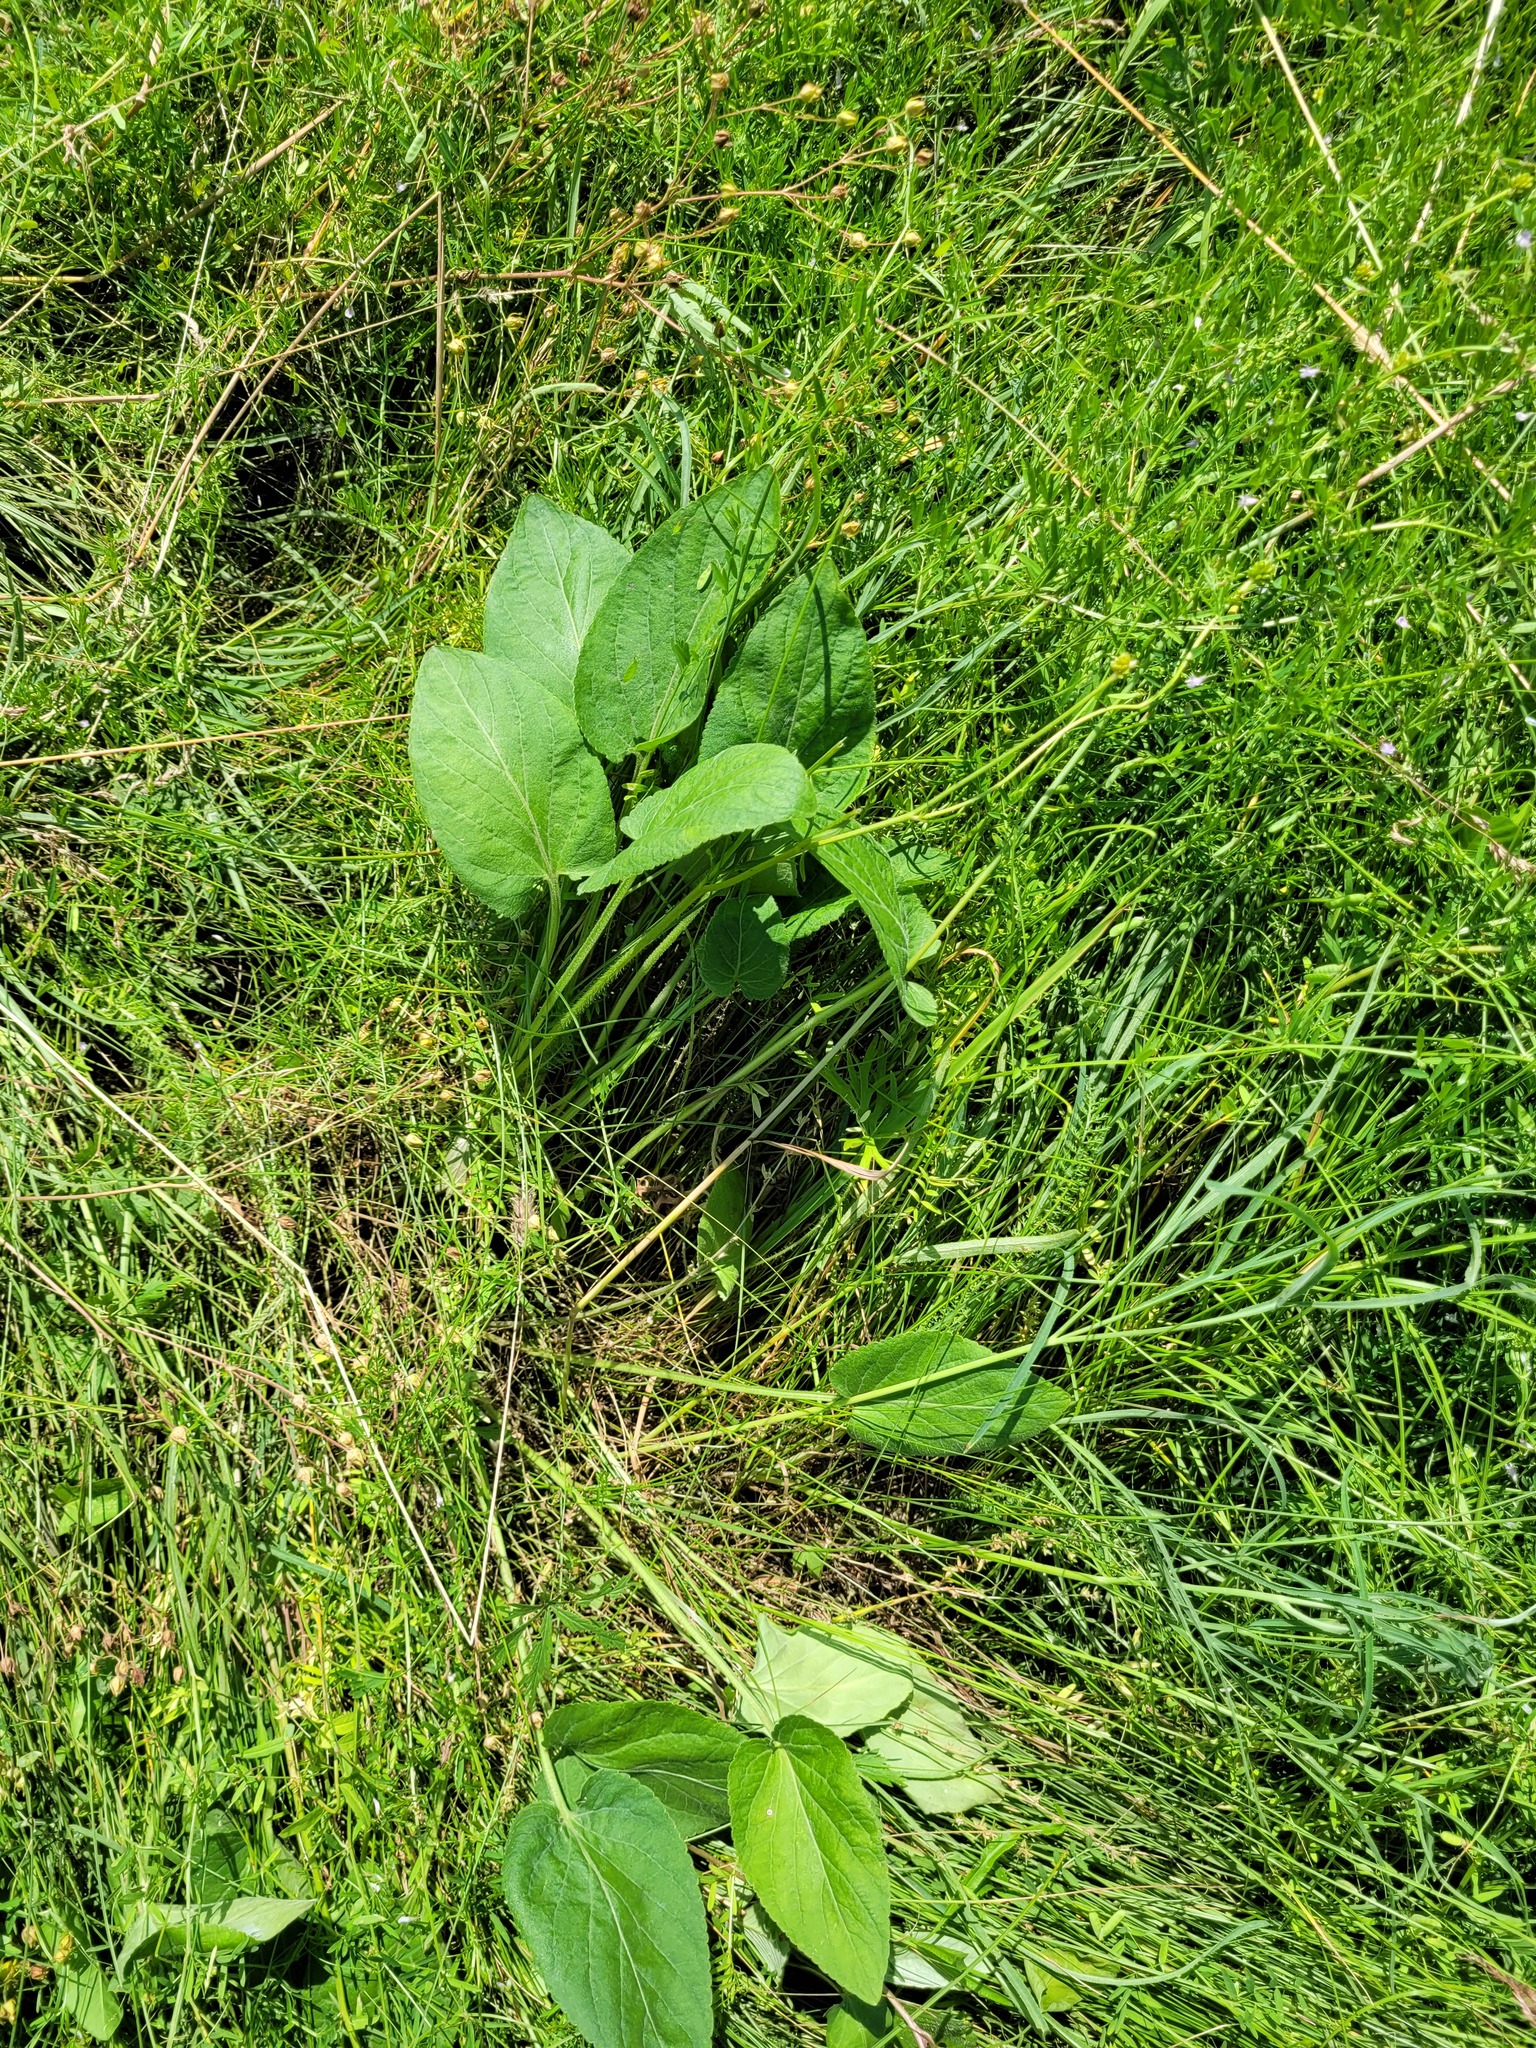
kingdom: Plantae
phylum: Tracheophyta
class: Magnoliopsida
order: Malpighiales
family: Violaceae
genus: Viola
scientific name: Viola hirta
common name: Hairy violet
